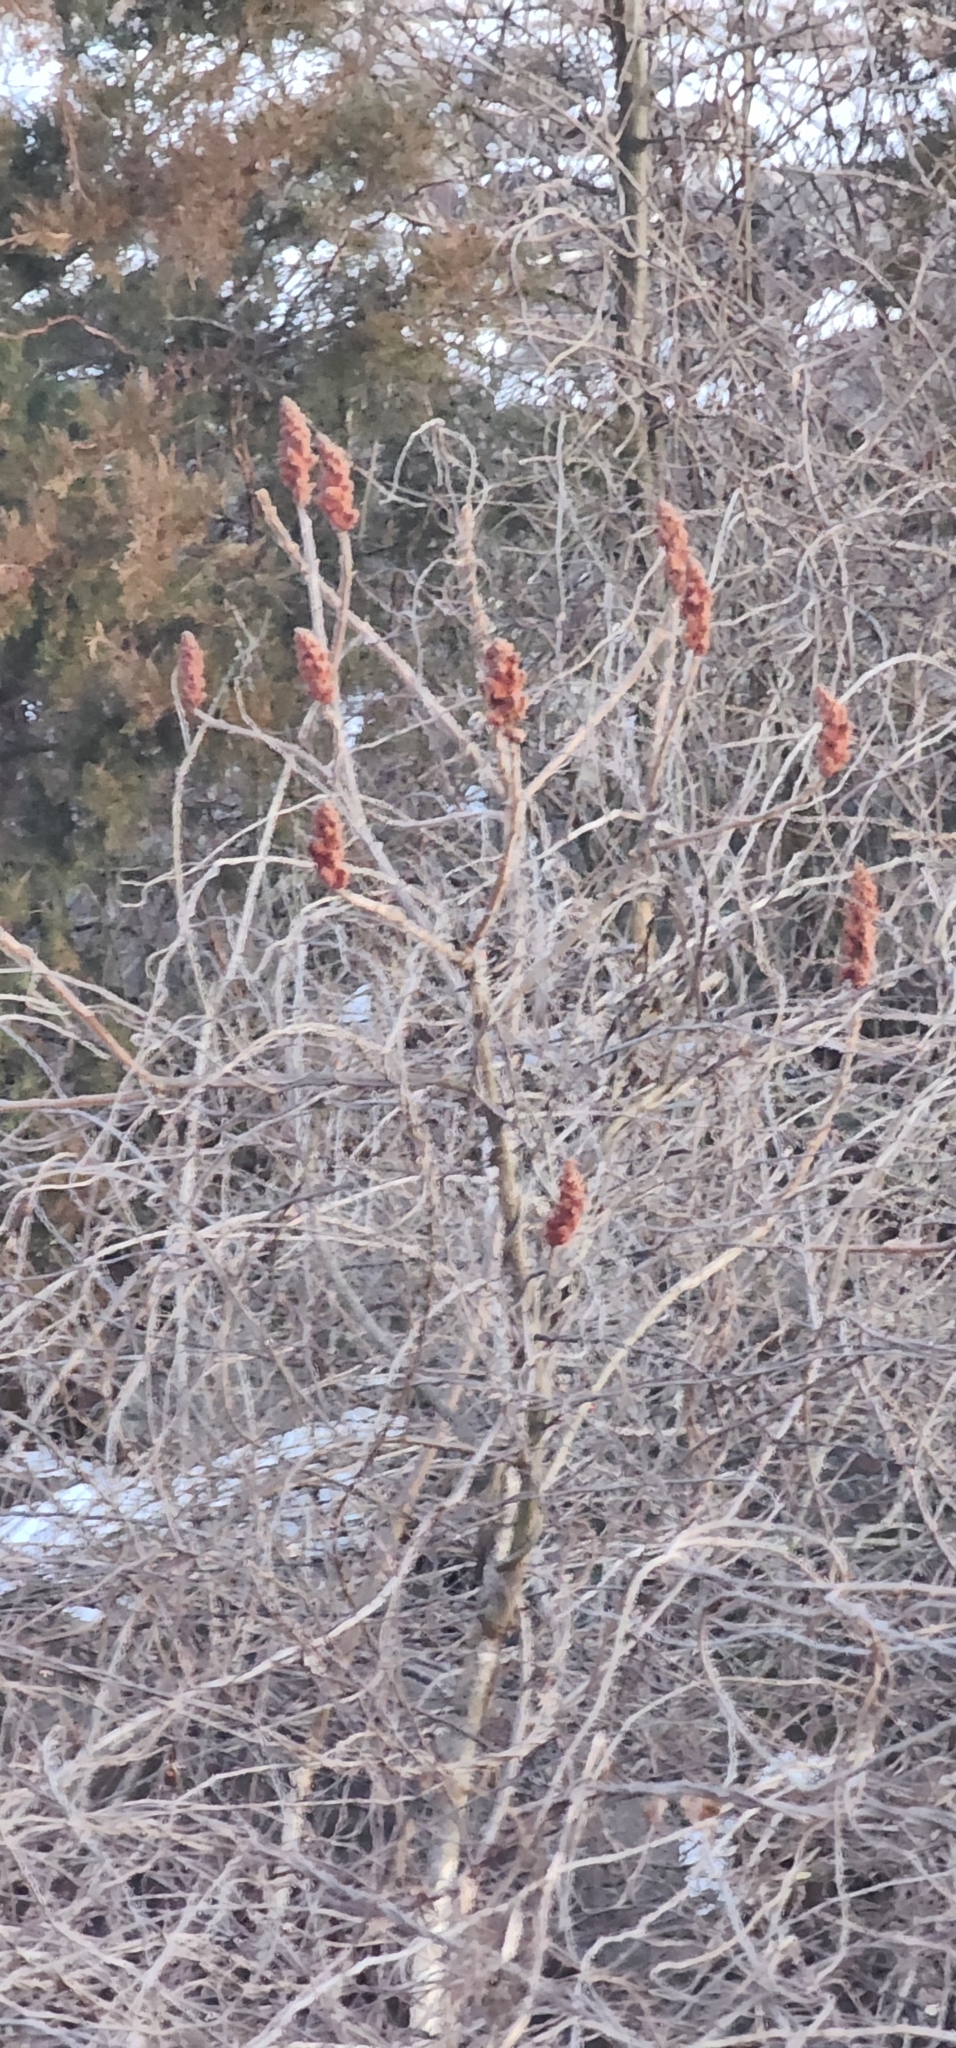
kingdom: Plantae
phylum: Tracheophyta
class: Magnoliopsida
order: Sapindales
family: Anacardiaceae
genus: Rhus
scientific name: Rhus typhina
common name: Staghorn sumac
